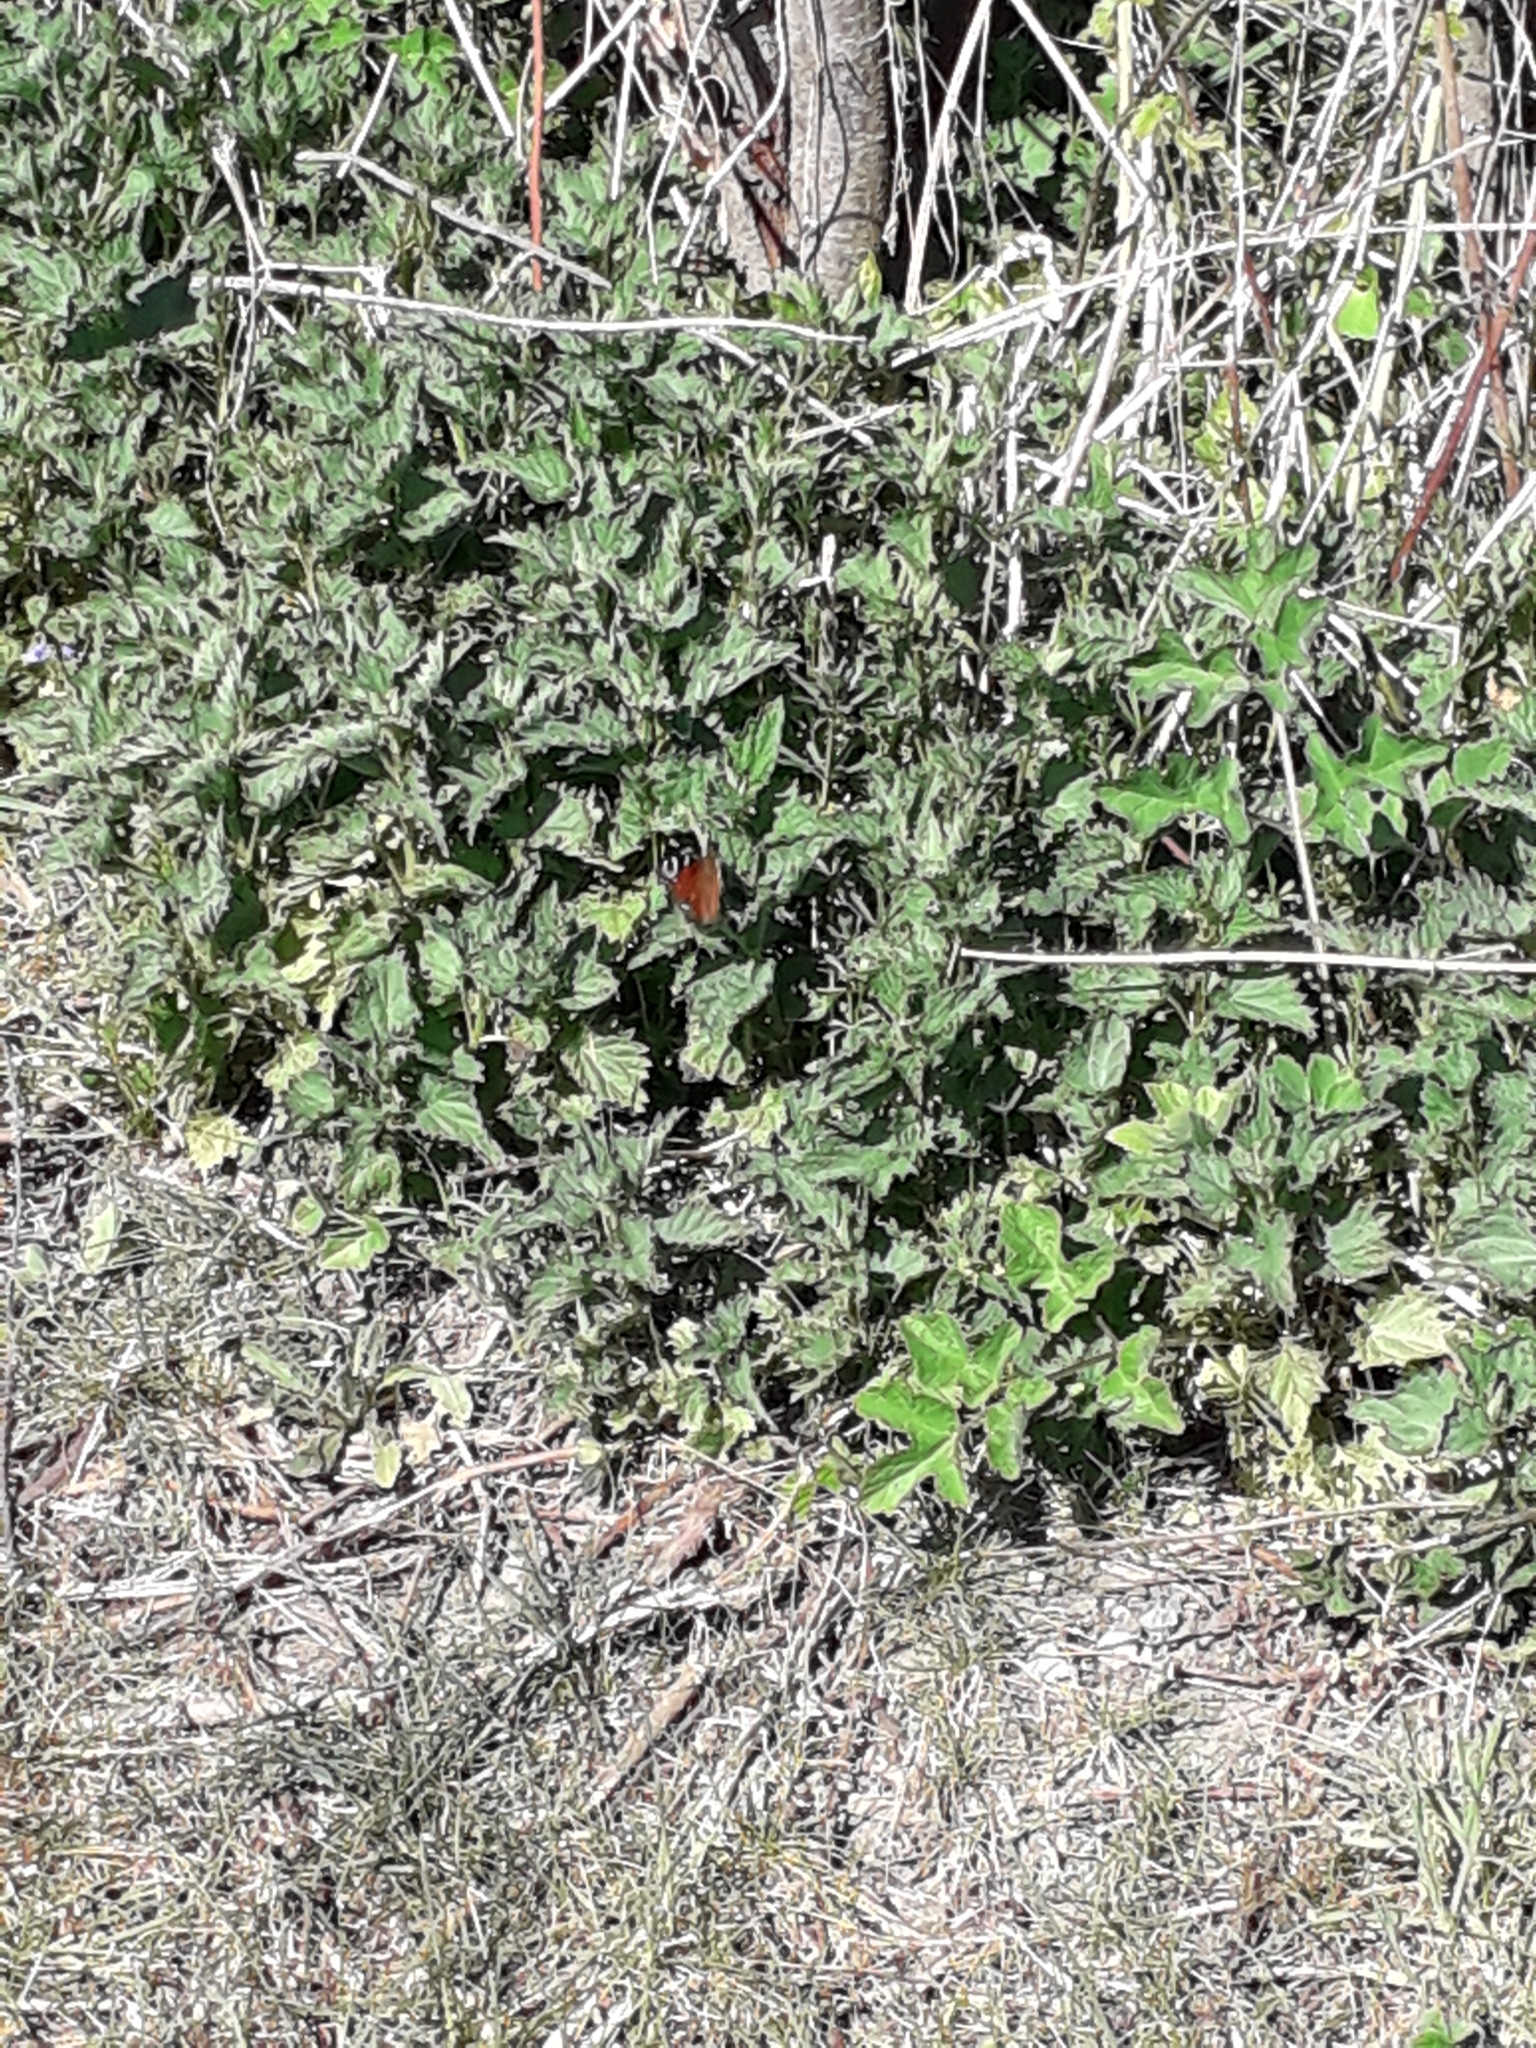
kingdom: Animalia
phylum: Arthropoda
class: Insecta
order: Lepidoptera
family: Nymphalidae
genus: Aglais
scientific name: Aglais io
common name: Peacock
